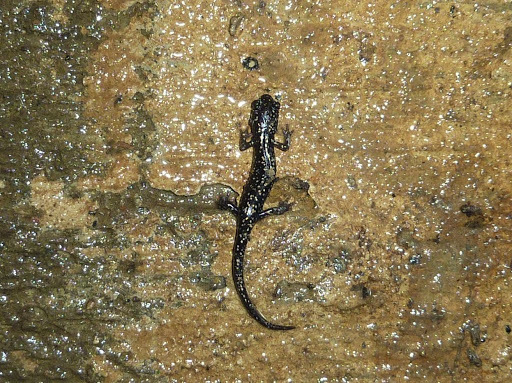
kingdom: Animalia
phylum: Chordata
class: Amphibia
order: Caudata
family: Plethodontidae
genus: Plethodon
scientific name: Plethodon glutinosus
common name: Northern slimy salamander
